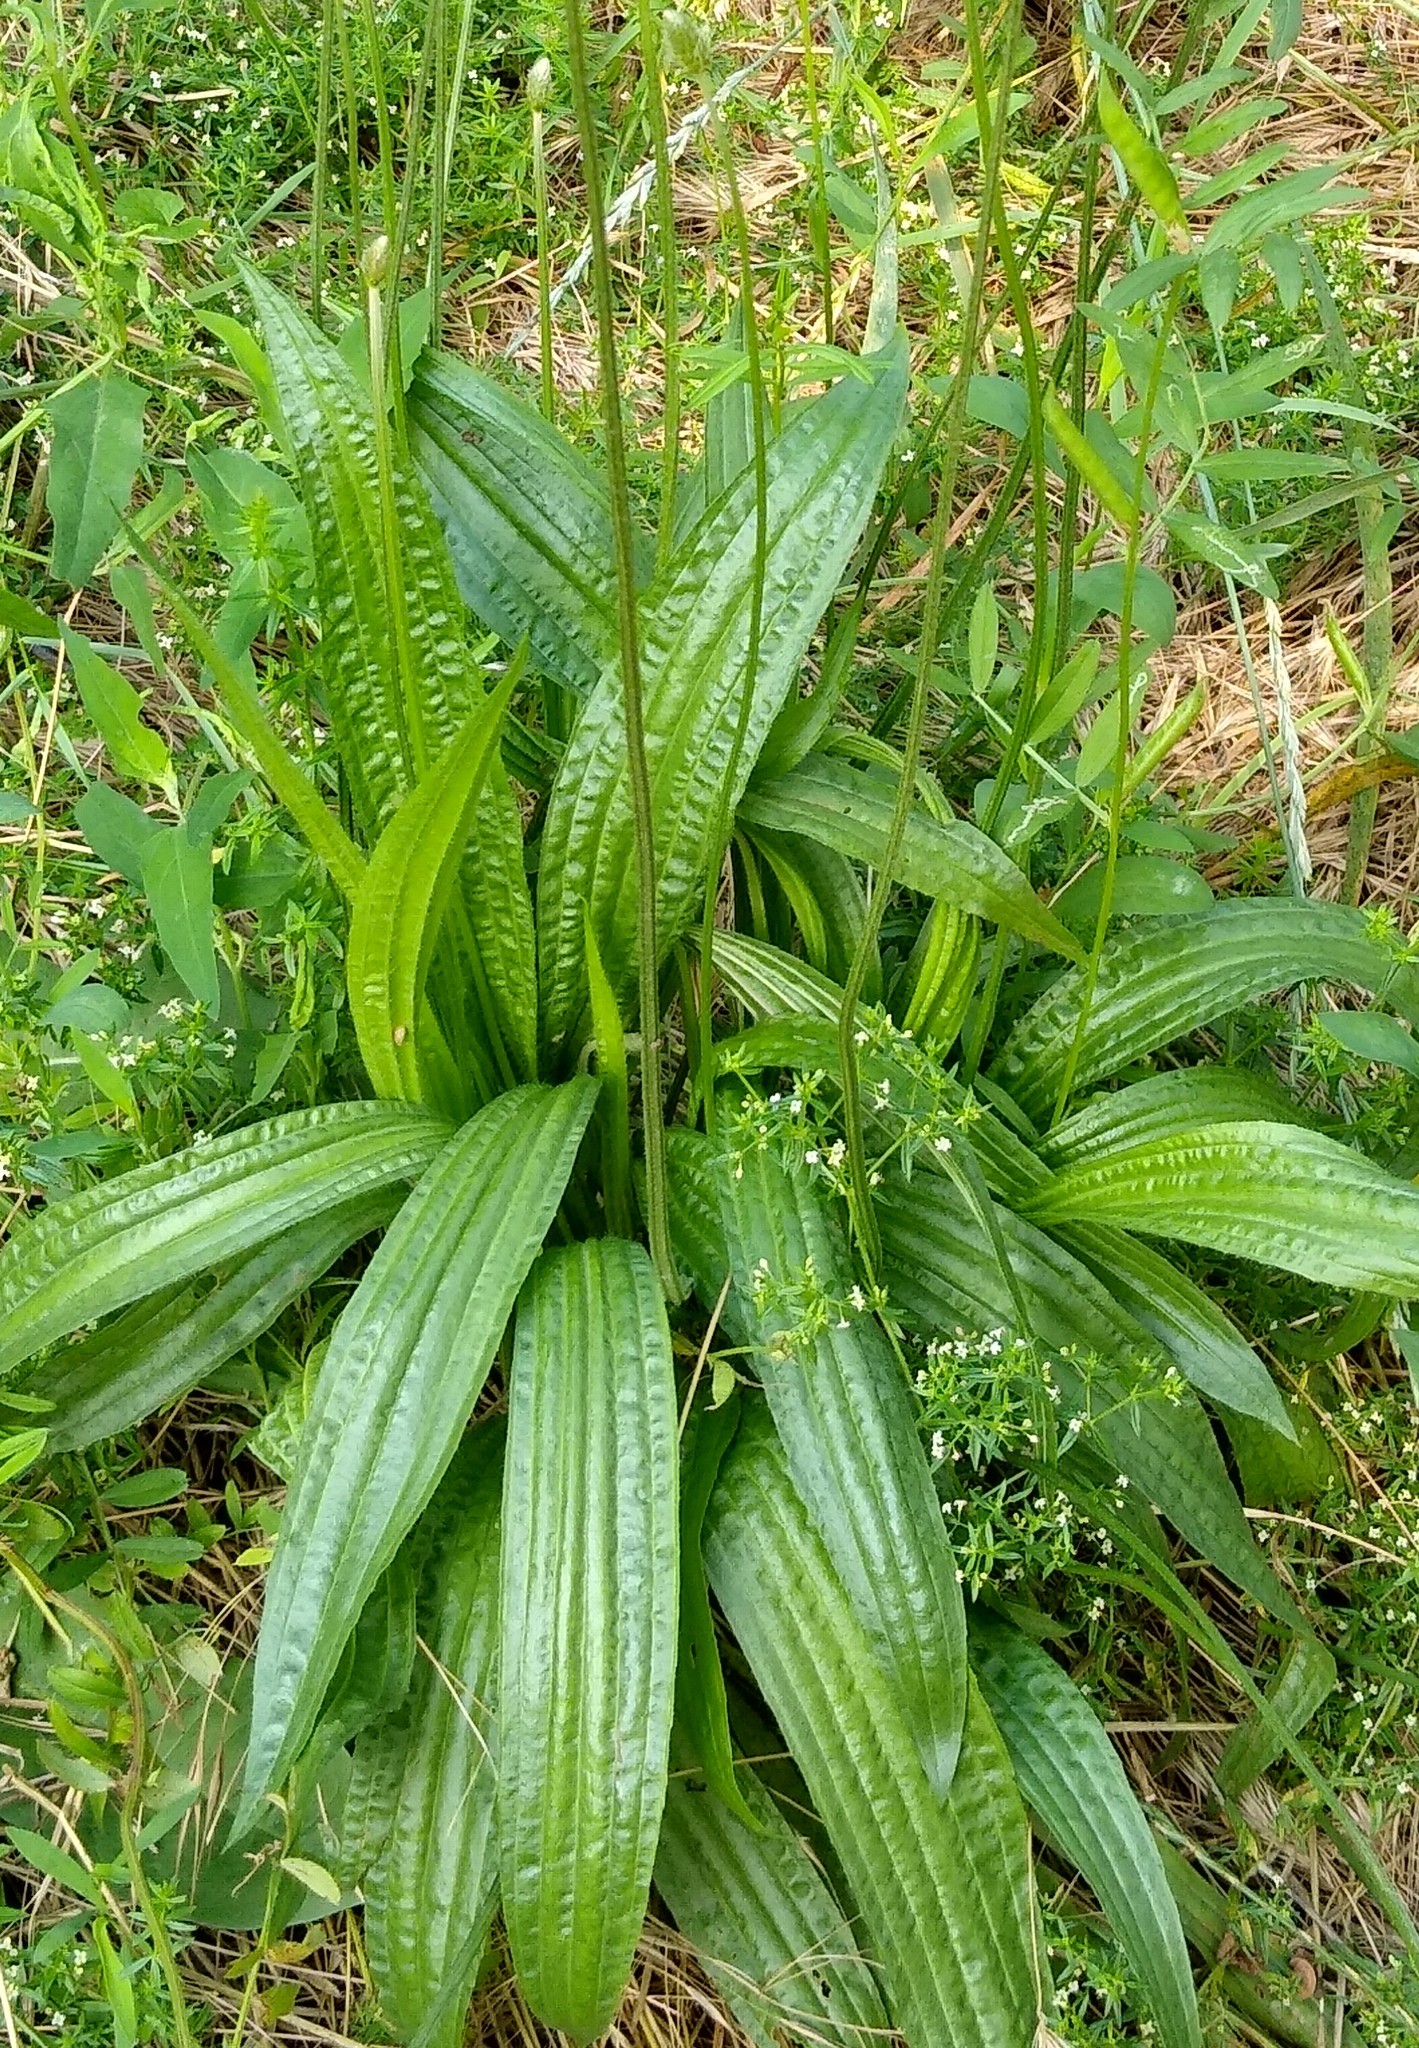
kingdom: Plantae
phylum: Tracheophyta
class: Magnoliopsida
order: Lamiales
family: Plantaginaceae
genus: Plantago
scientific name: Plantago lanceolata
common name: Ribwort plantain
